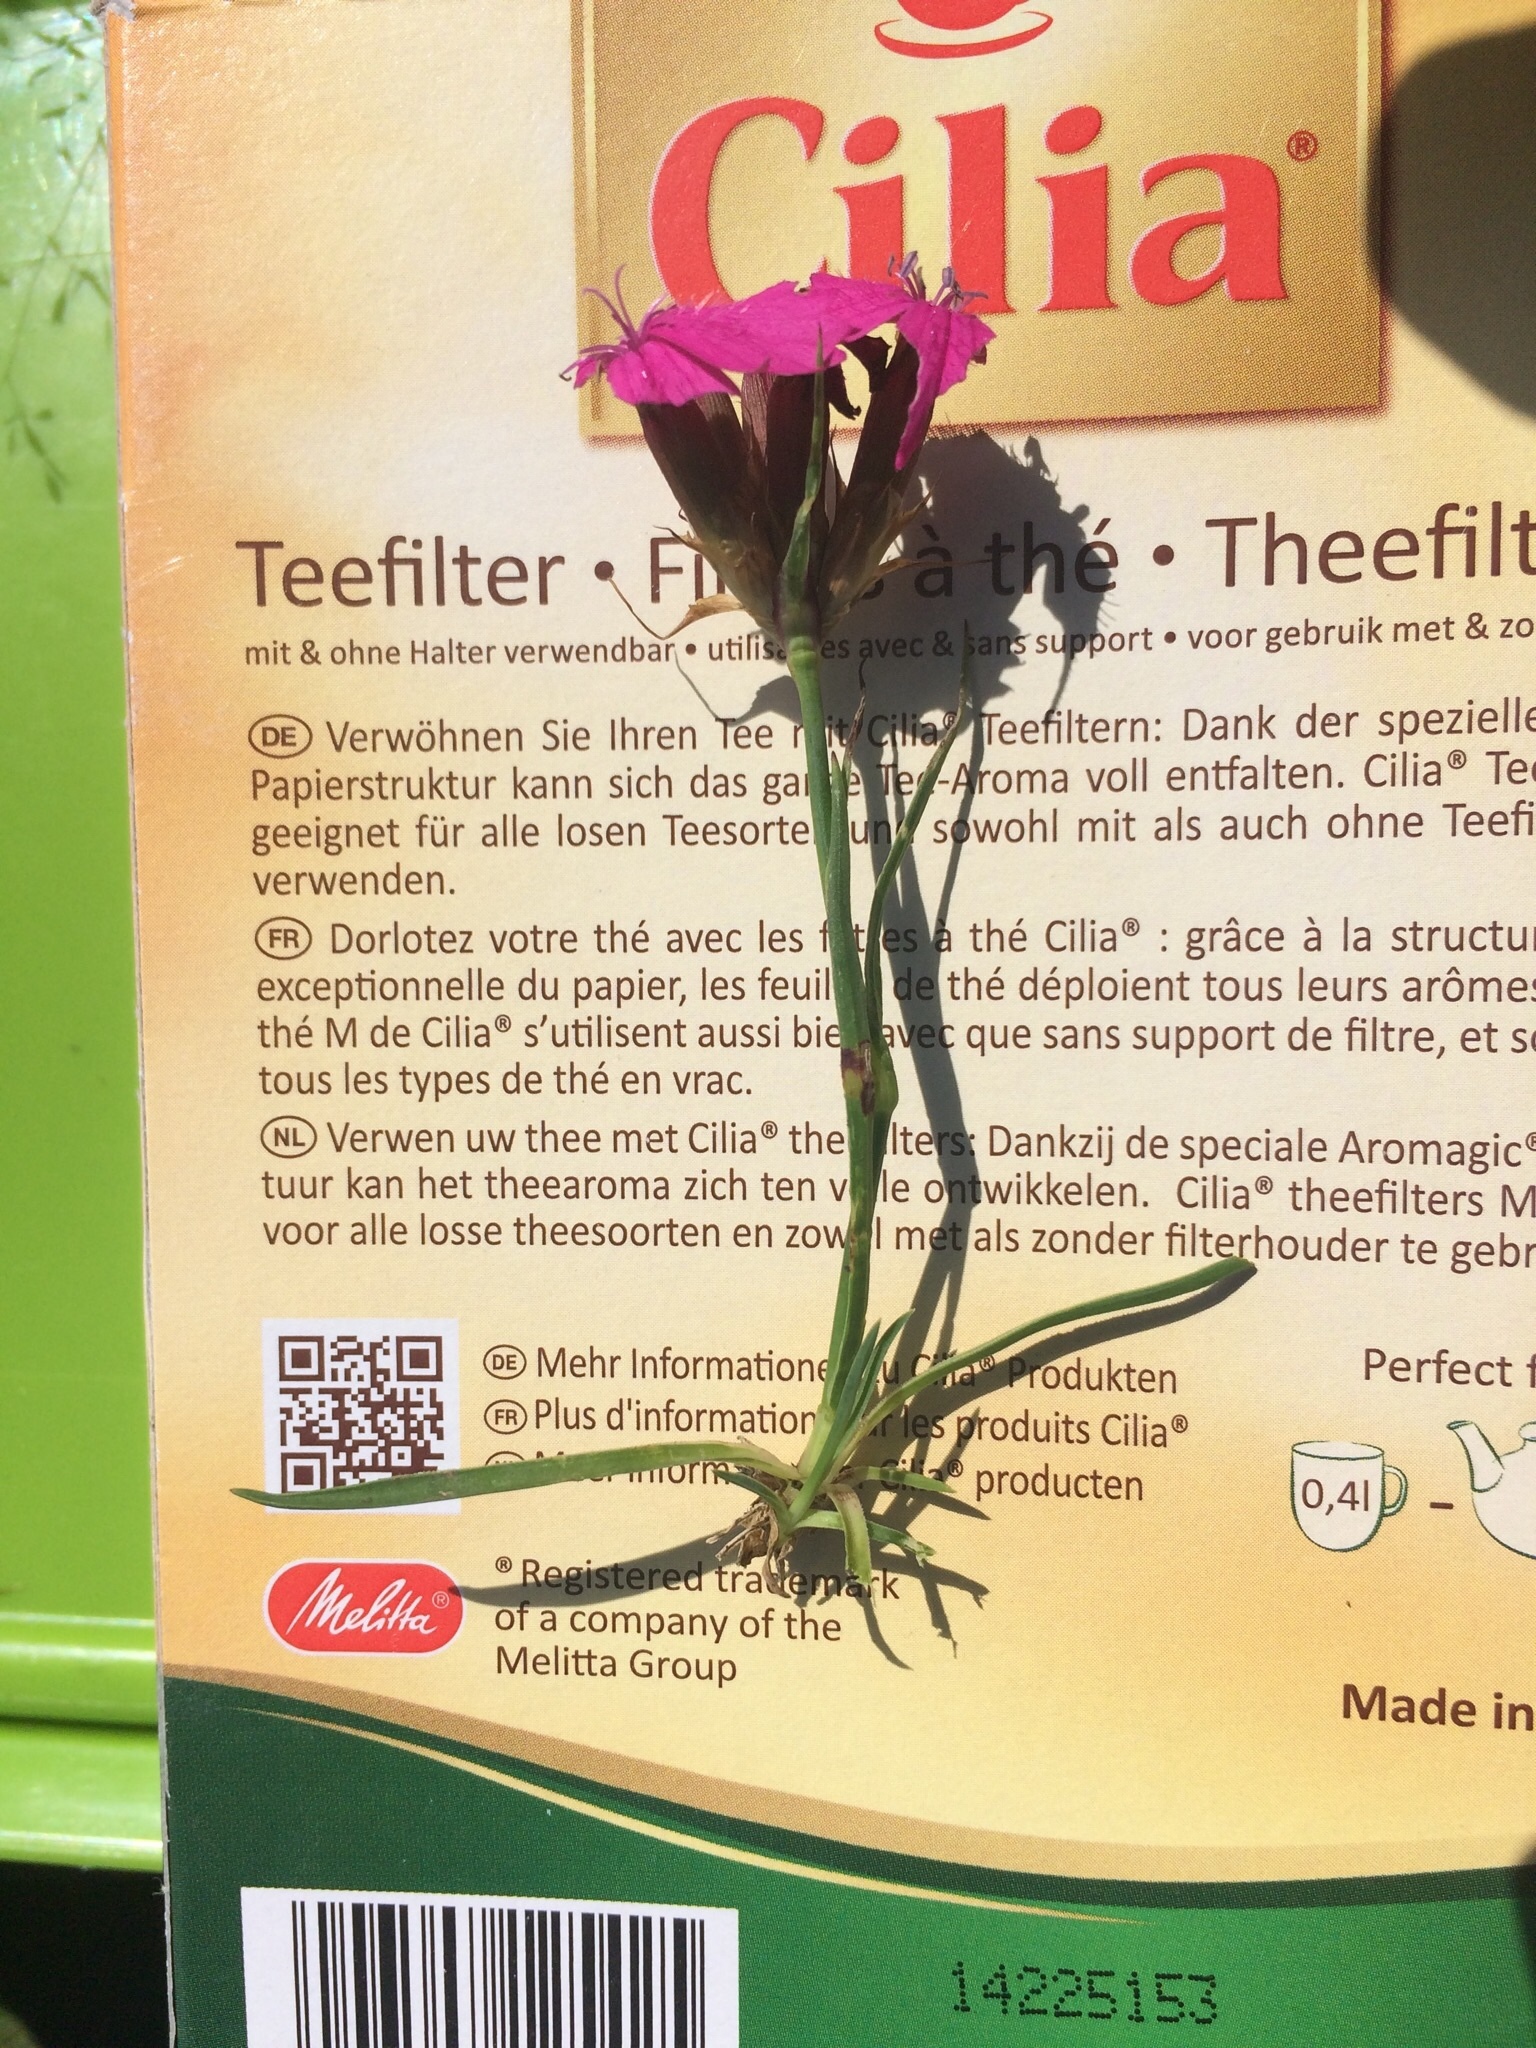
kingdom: Plantae
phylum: Tracheophyta
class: Magnoliopsida
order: Caryophyllales
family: Caryophyllaceae
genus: Dianthus
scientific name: Dianthus carthusianorum
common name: Carthusian pink
